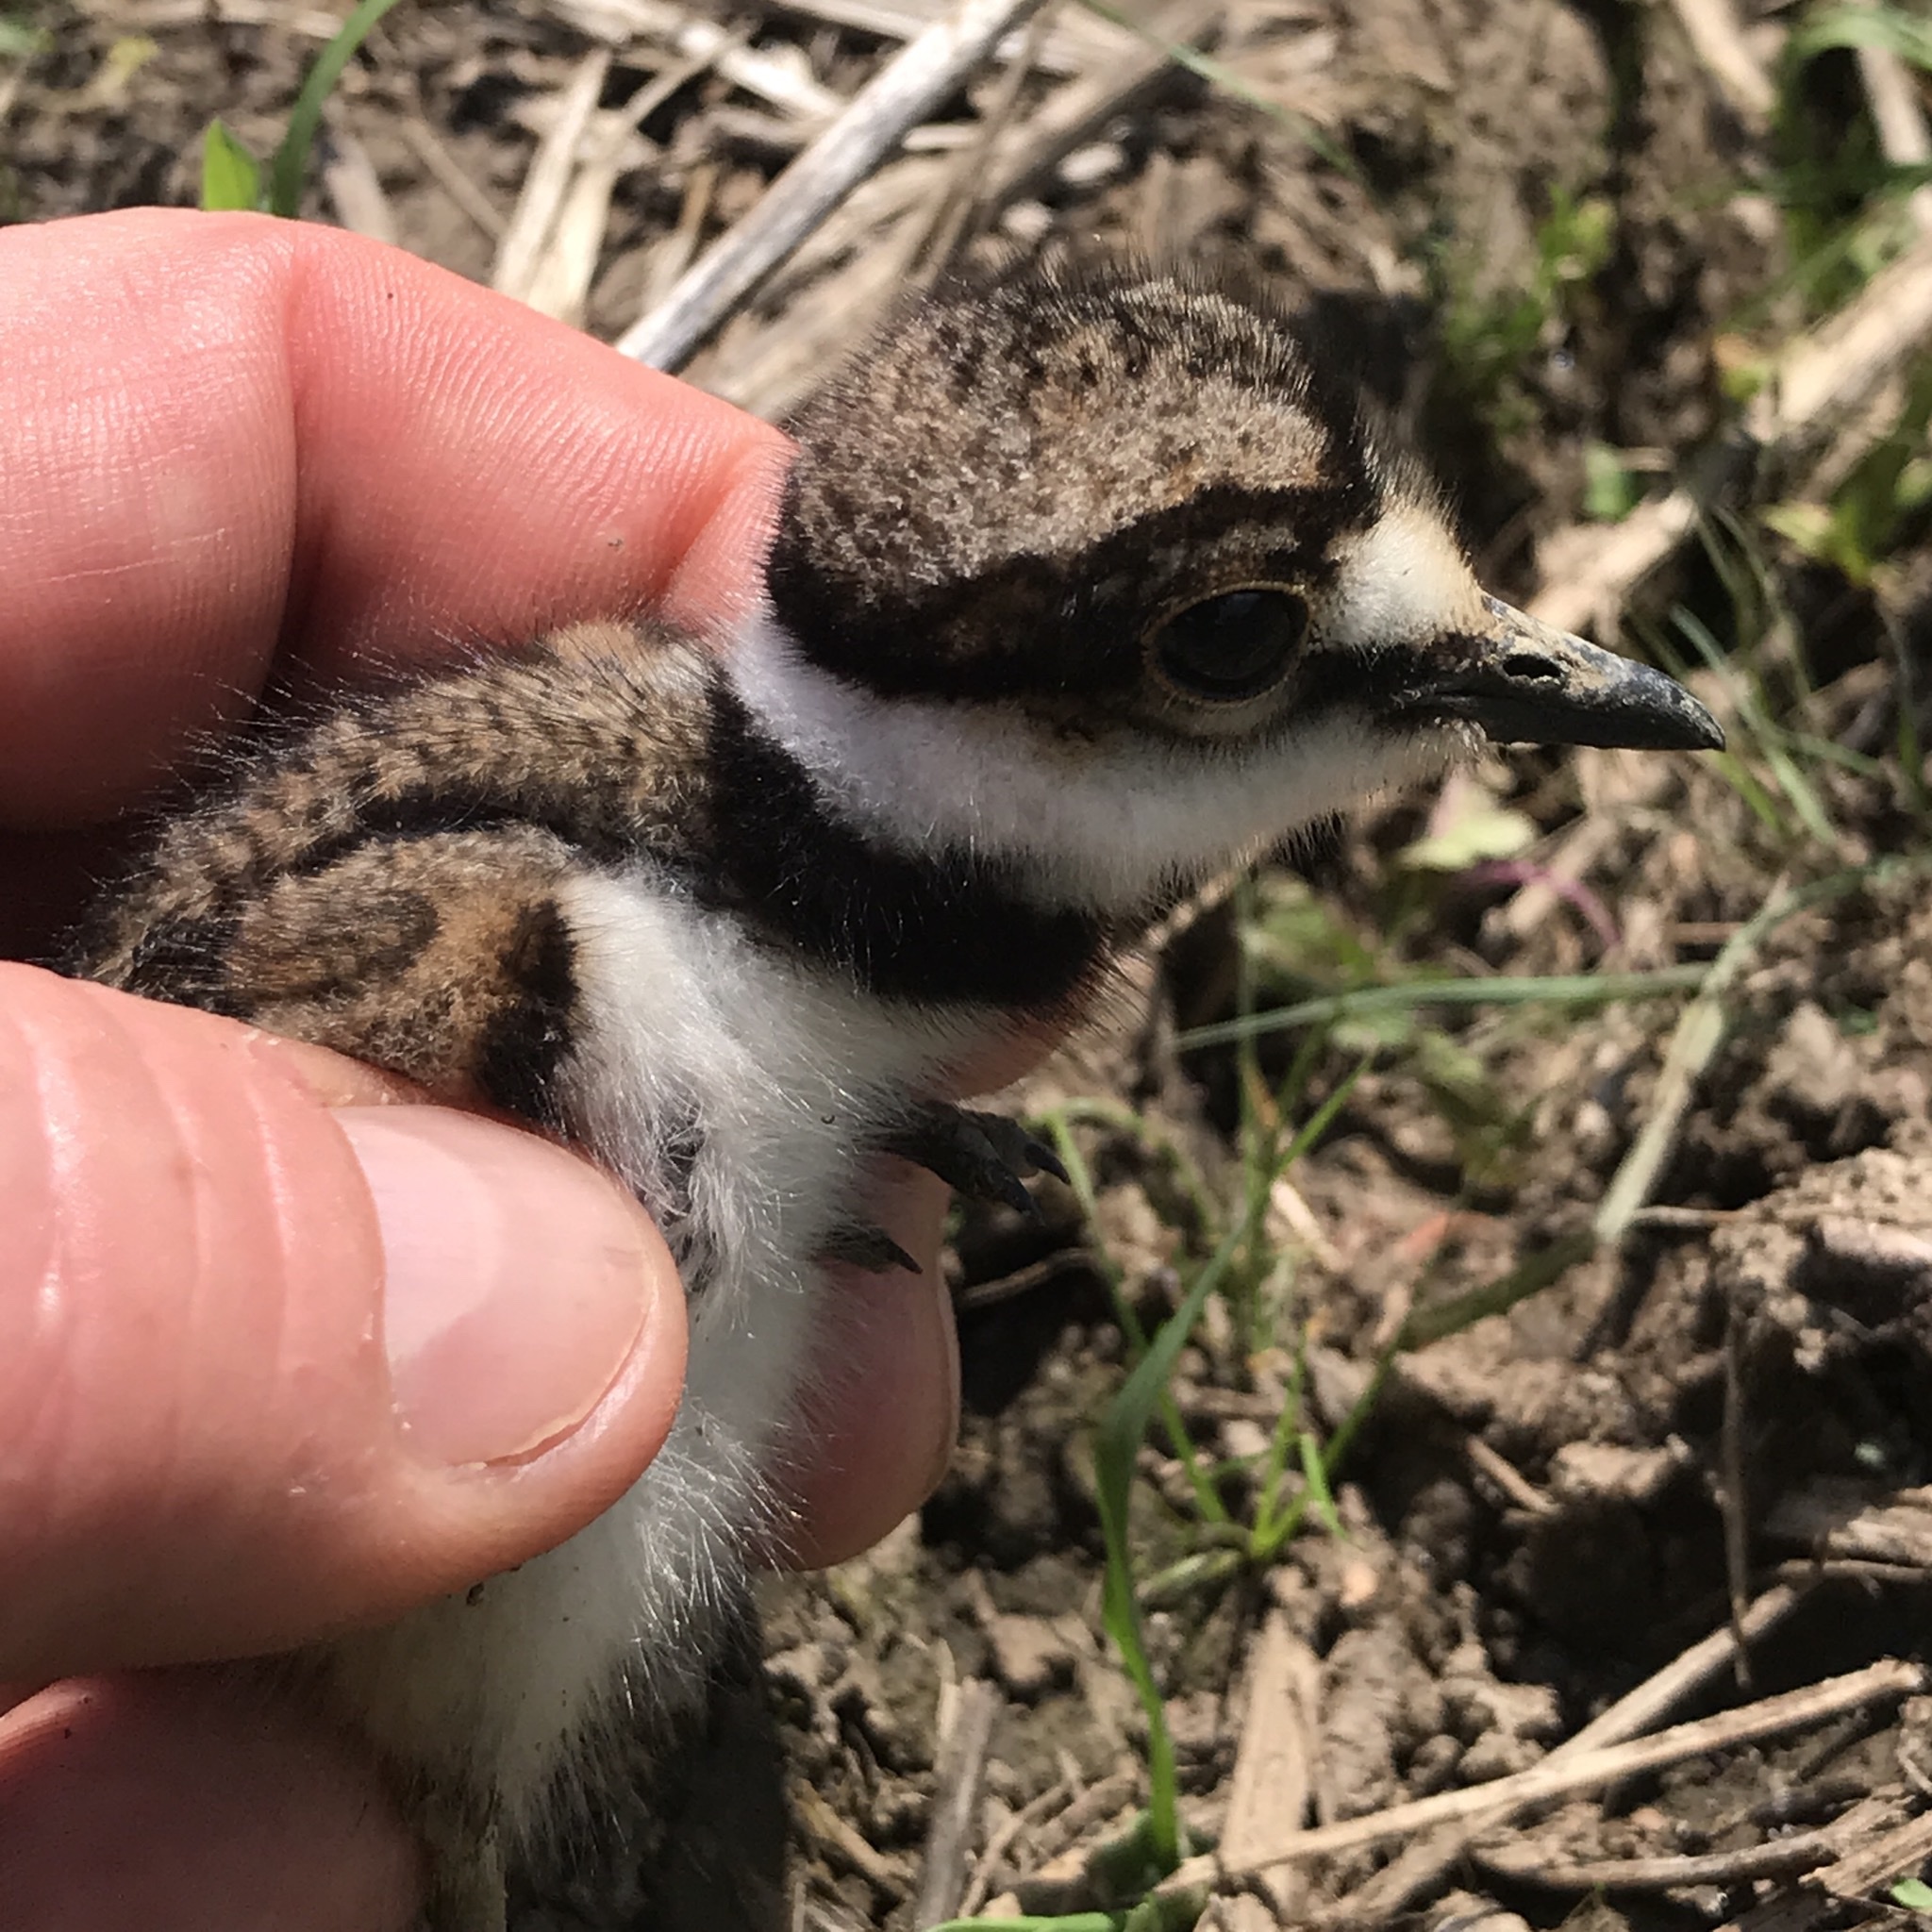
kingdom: Animalia
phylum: Chordata
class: Aves
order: Charadriiformes
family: Charadriidae
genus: Charadrius
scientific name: Charadrius vociferus
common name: Killdeer
